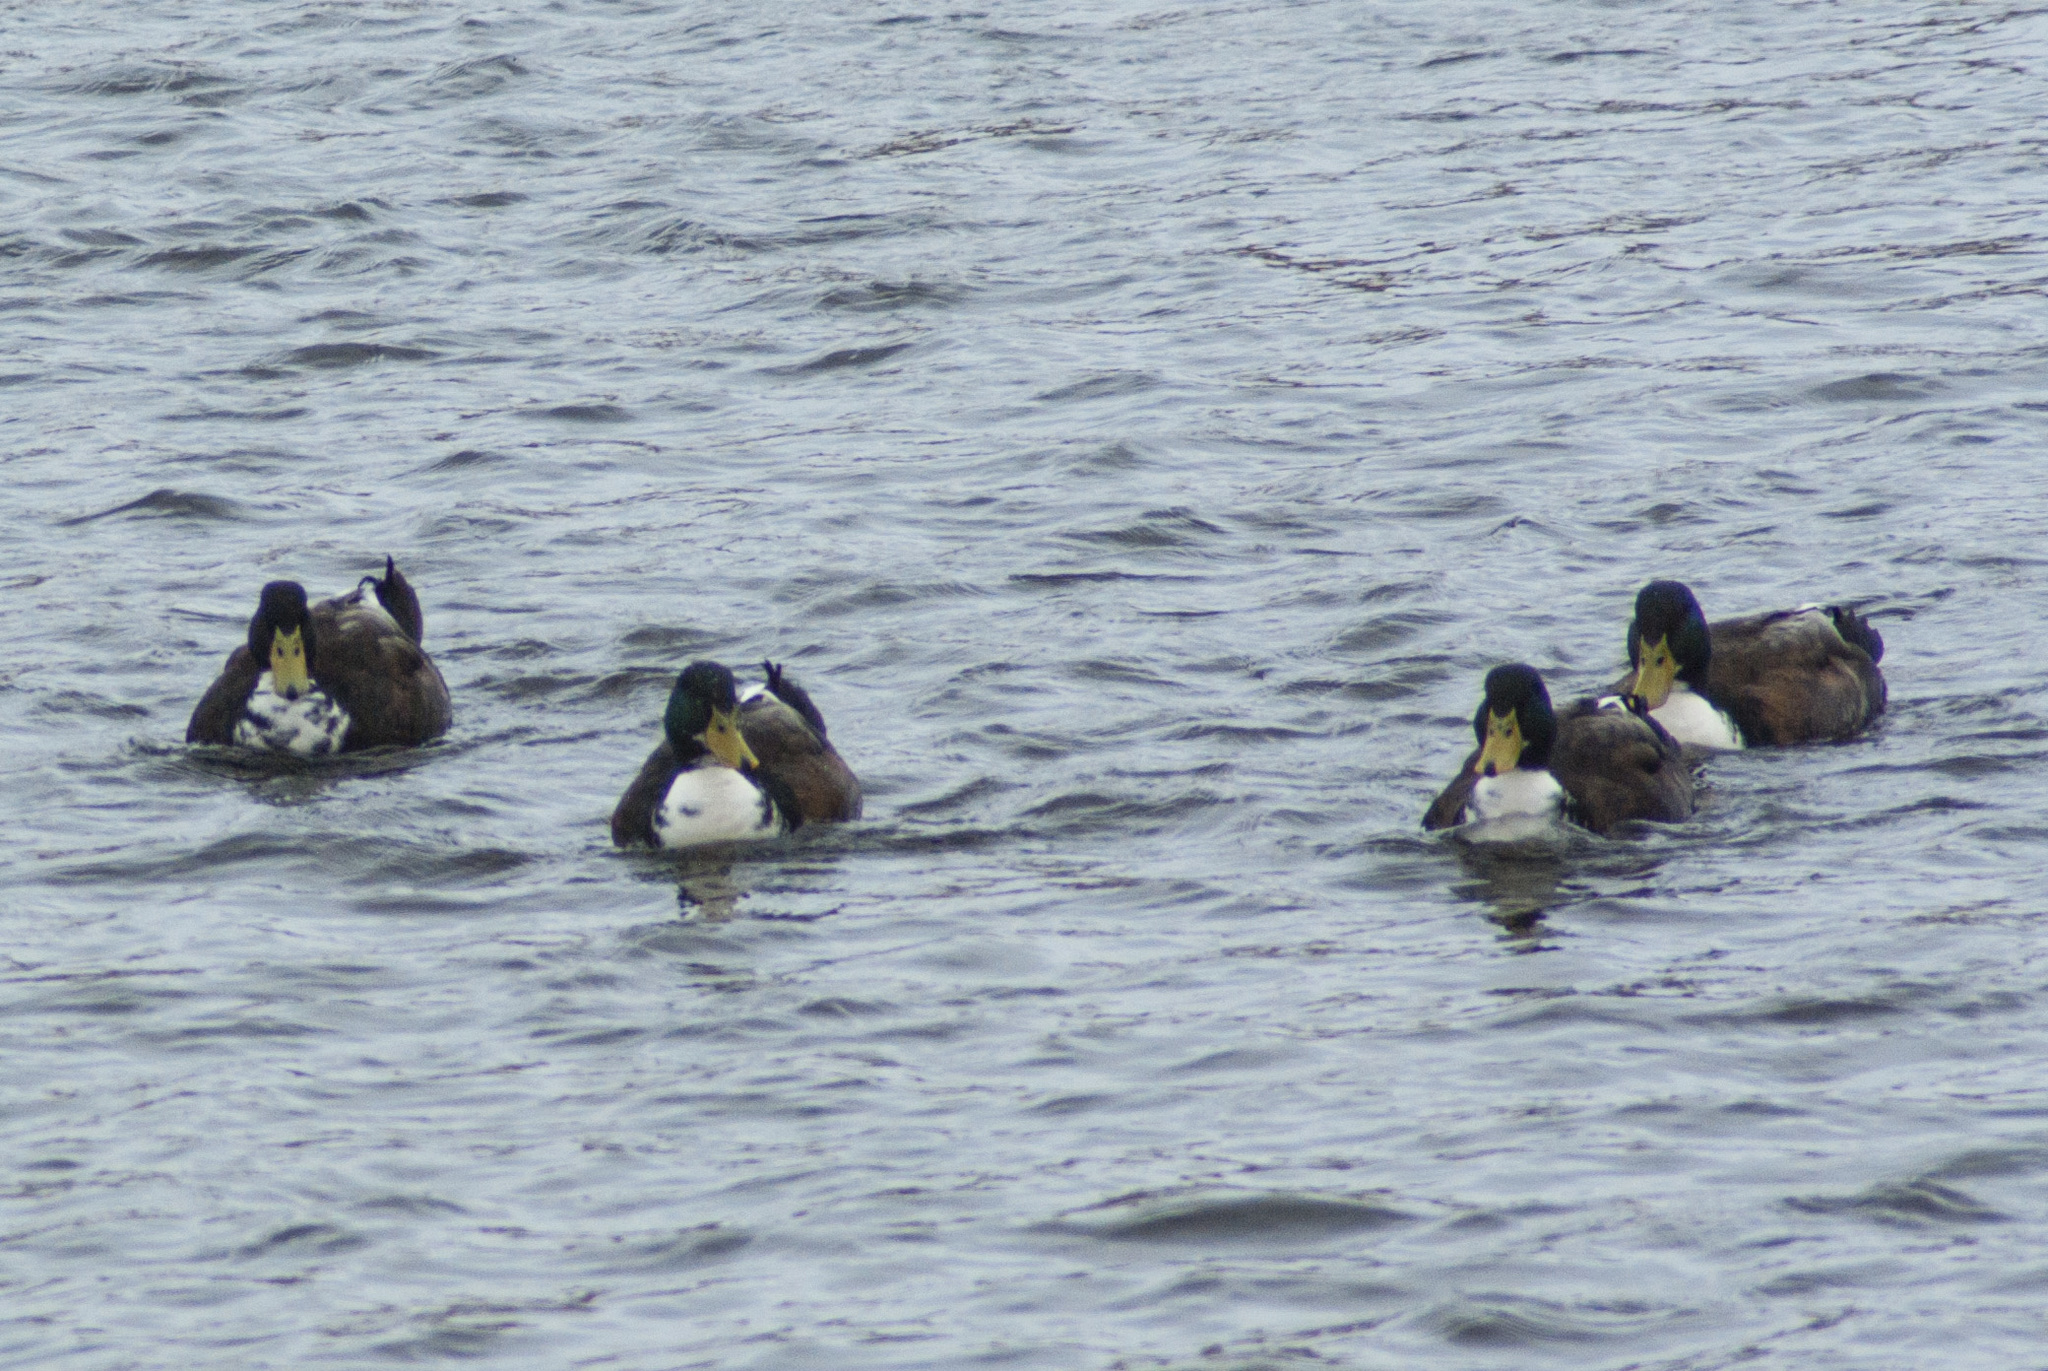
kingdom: Animalia
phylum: Chordata
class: Aves
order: Anseriformes
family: Anatidae
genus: Anas
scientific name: Anas platyrhynchos
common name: Mallard
